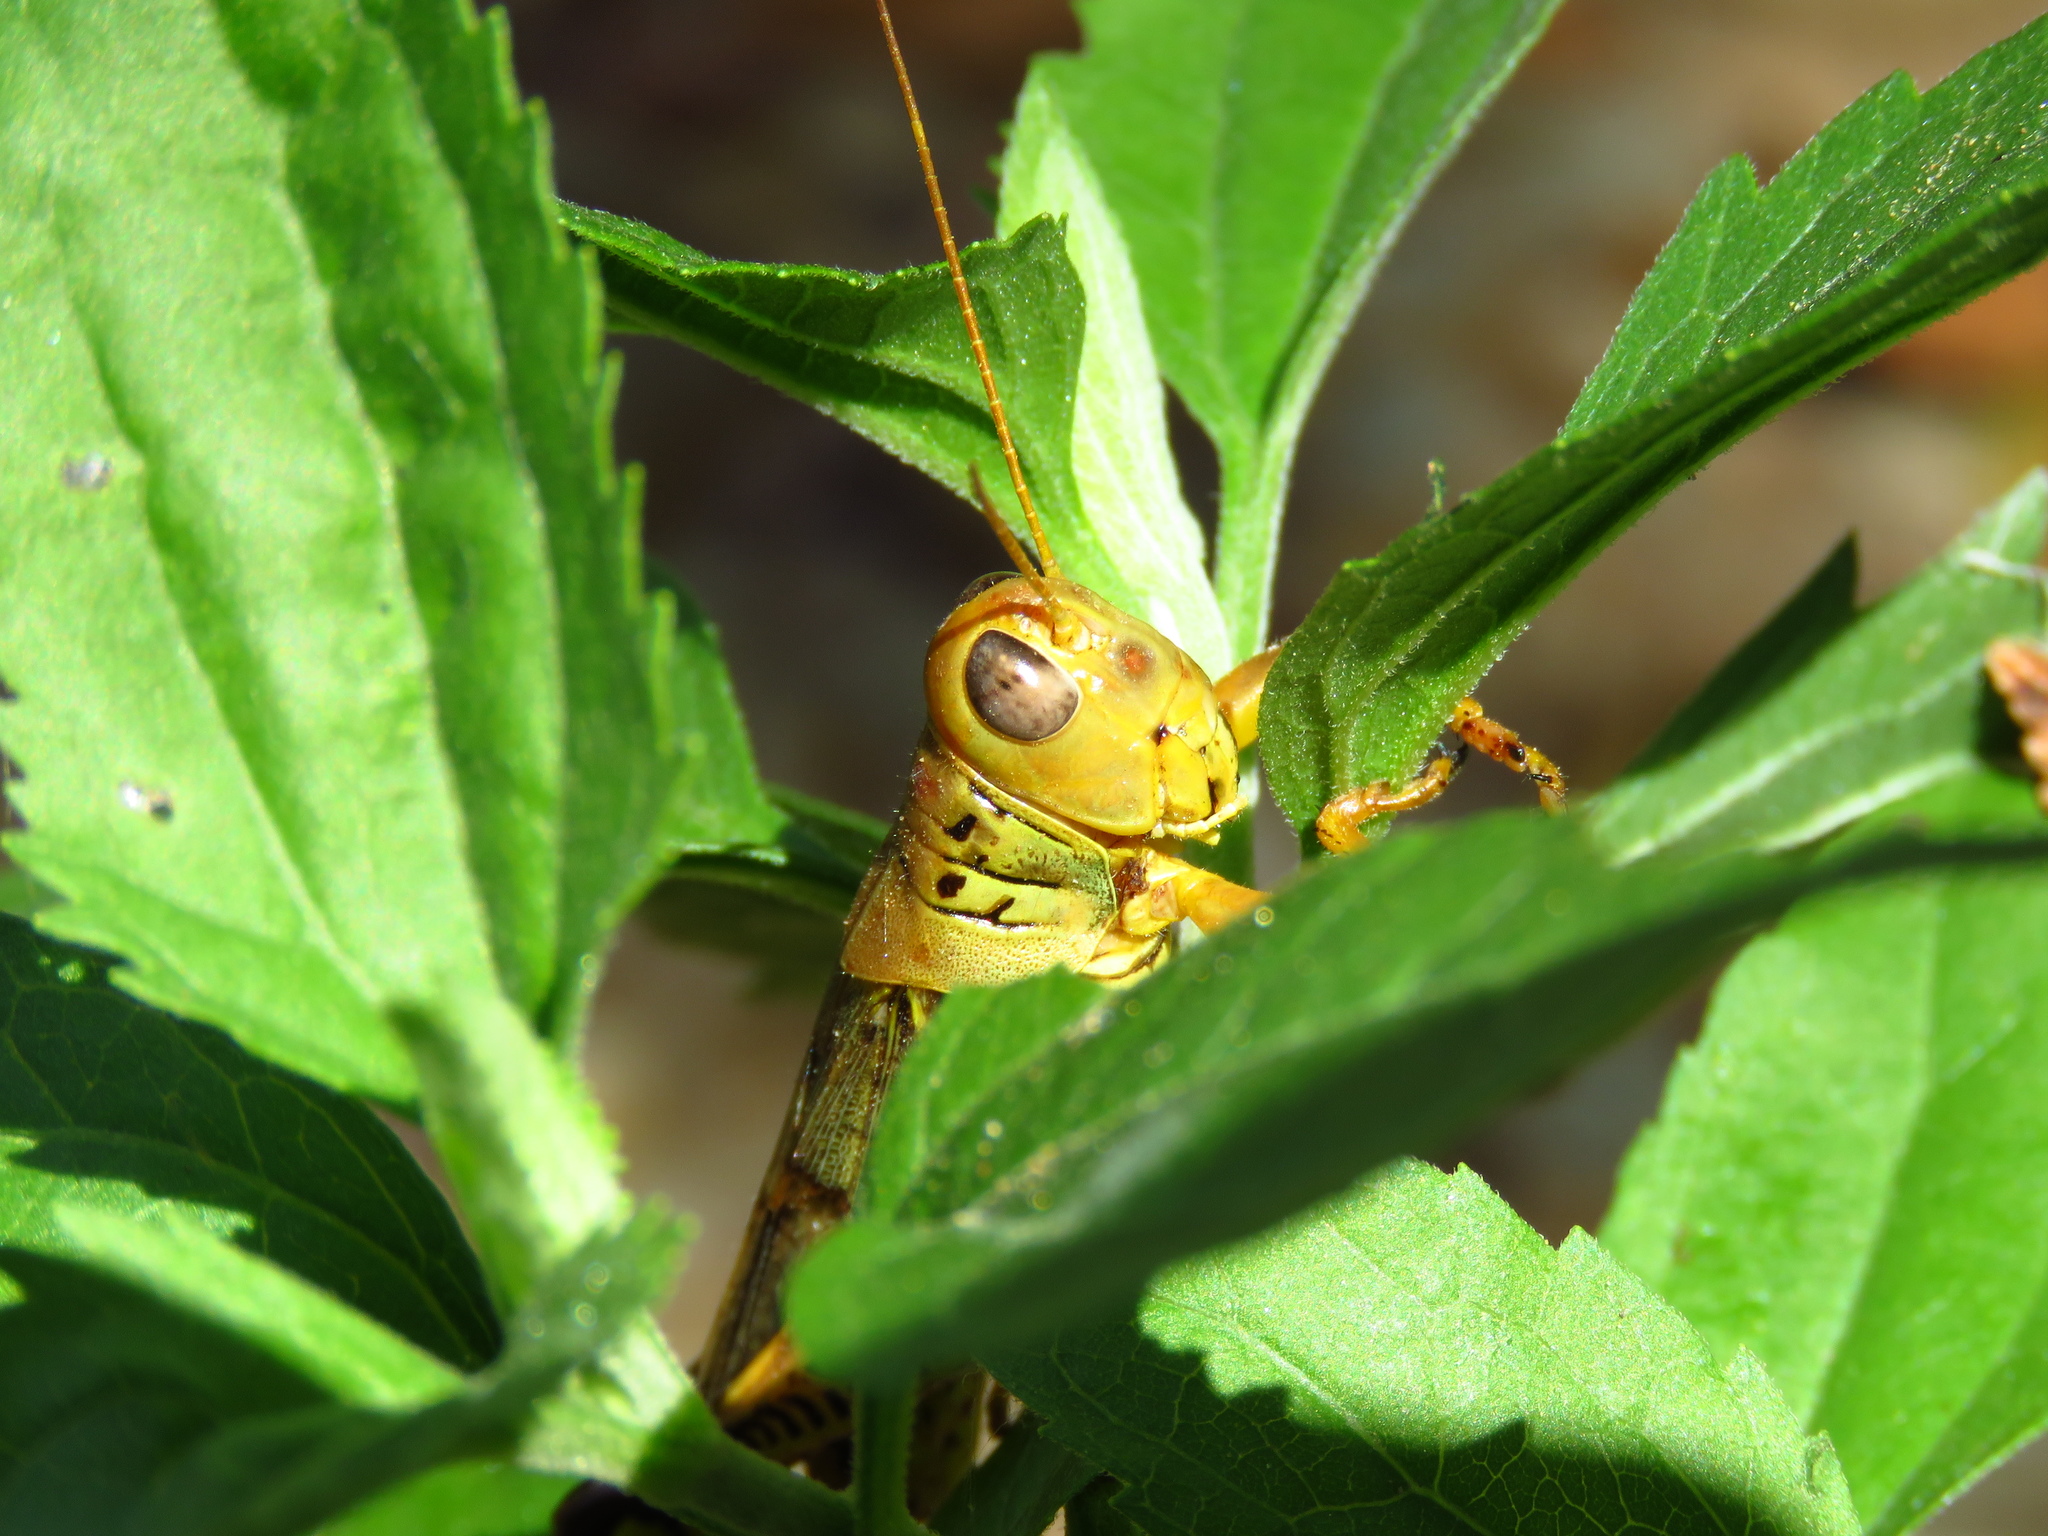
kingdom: Animalia
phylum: Arthropoda
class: Insecta
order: Orthoptera
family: Acrididae
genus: Melanoplus
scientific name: Melanoplus differentialis
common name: Differential grasshopper
